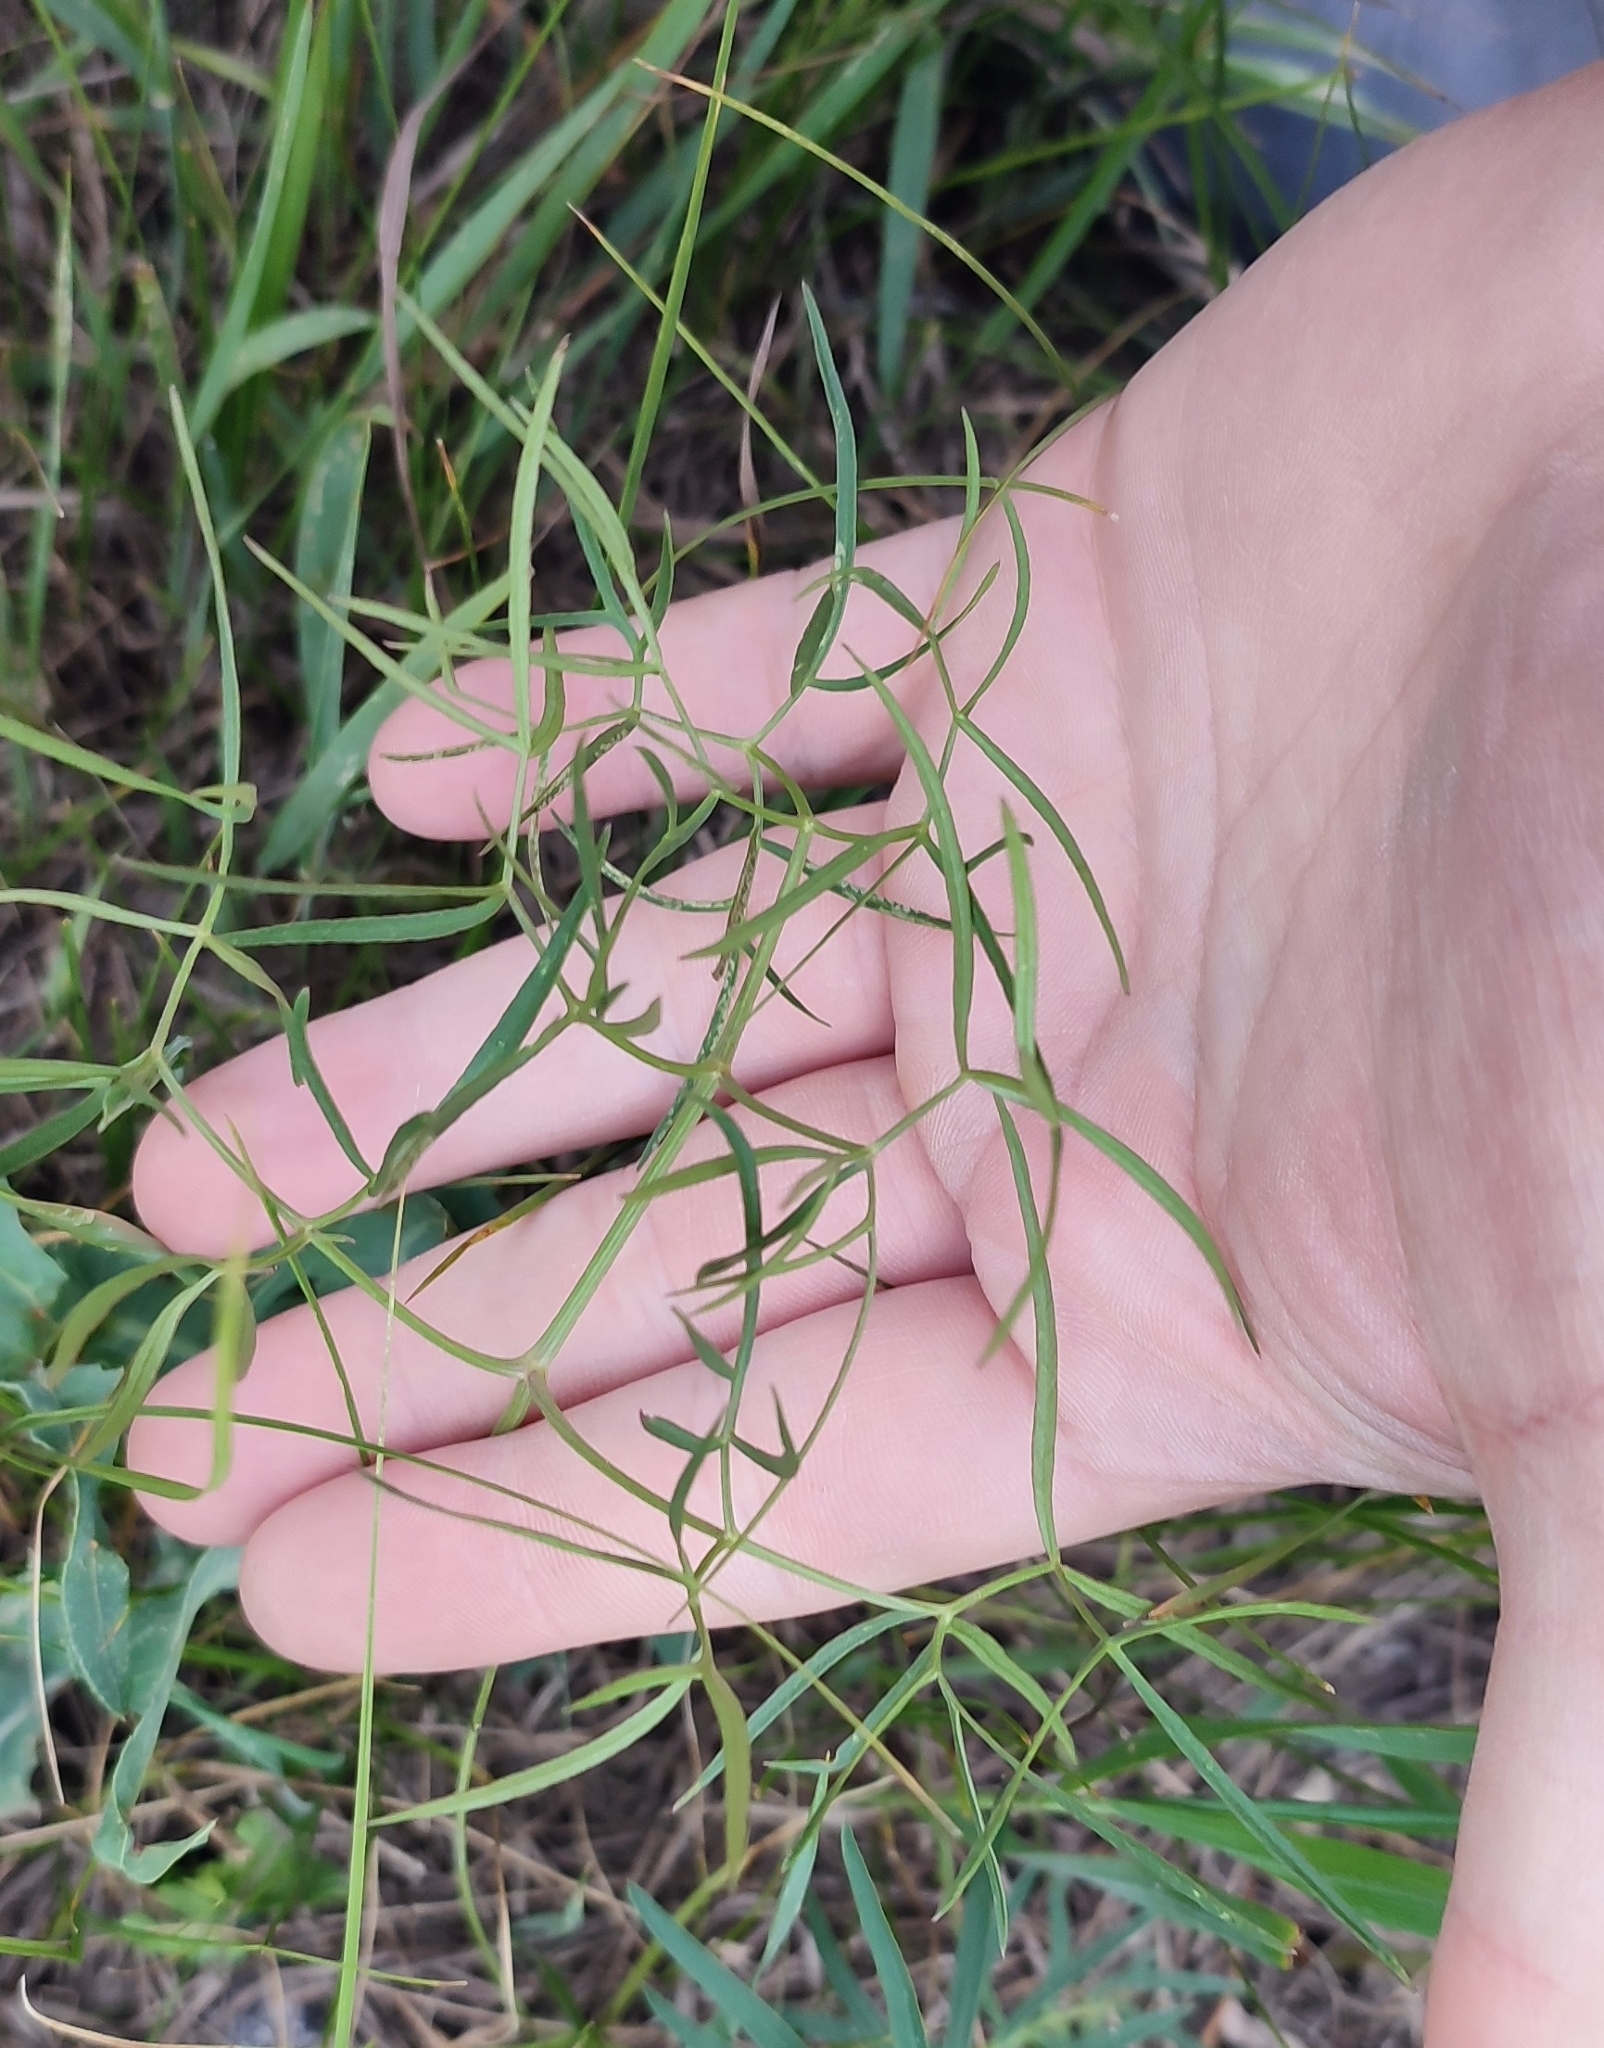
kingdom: Plantae
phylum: Tracheophyta
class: Magnoliopsida
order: Apiales
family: Apiaceae
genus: Cenolophium
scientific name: Cenolophium fischeri
